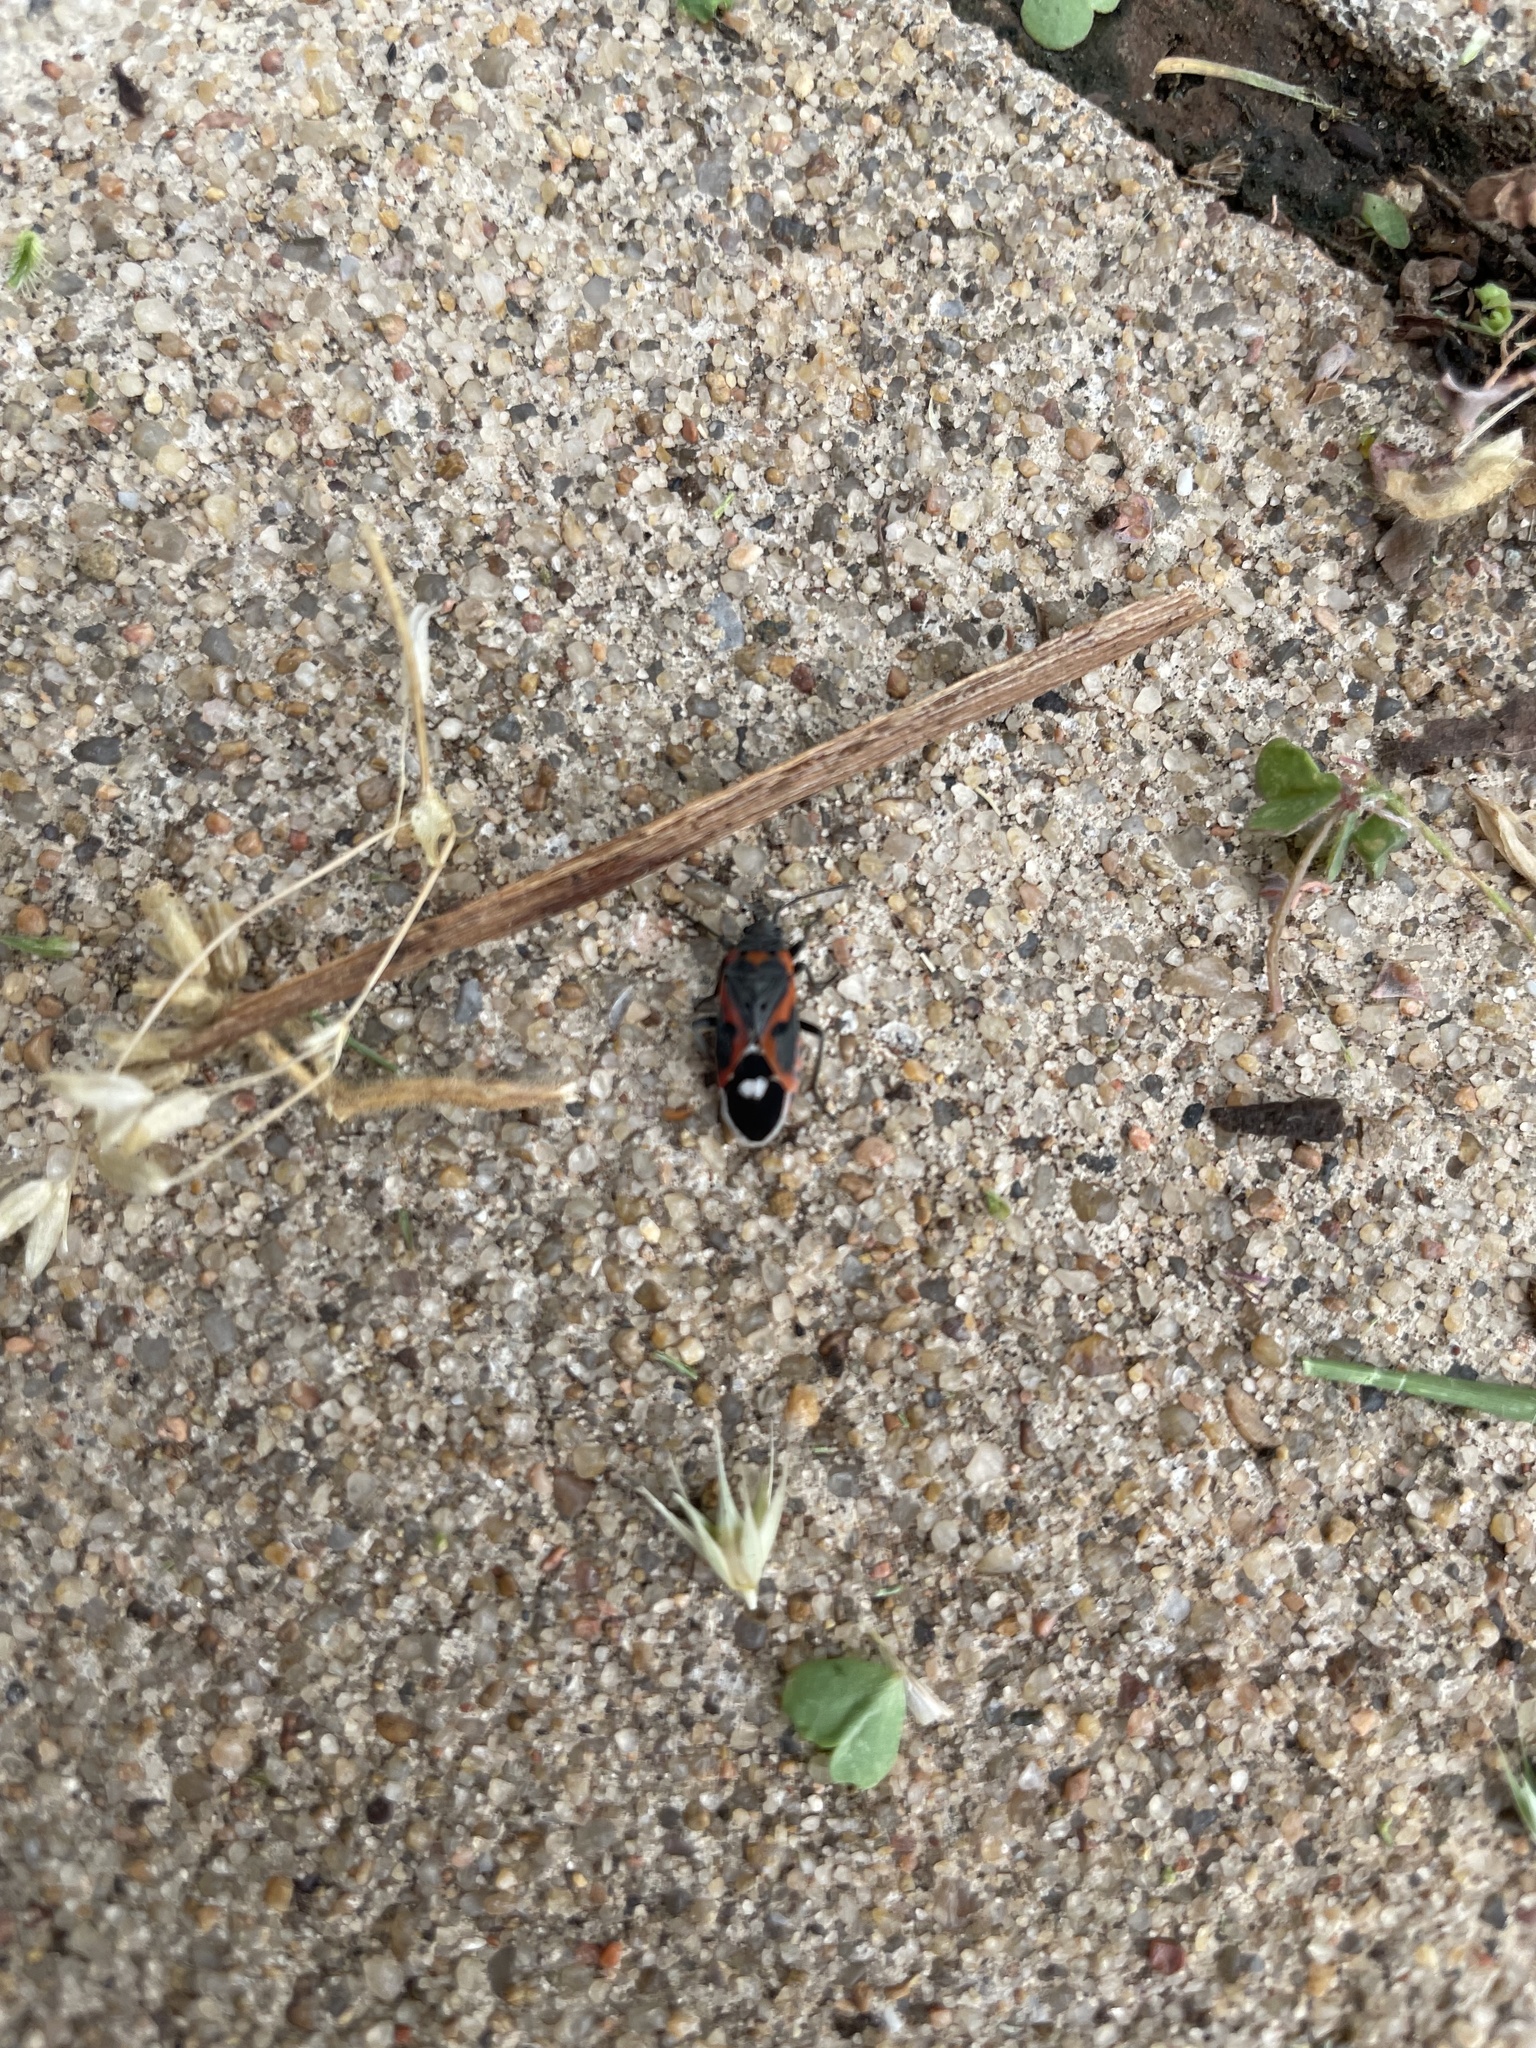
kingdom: Animalia
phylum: Arthropoda
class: Insecta
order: Hemiptera
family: Lygaeidae
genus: Lygaeus
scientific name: Lygaeus kalmii
